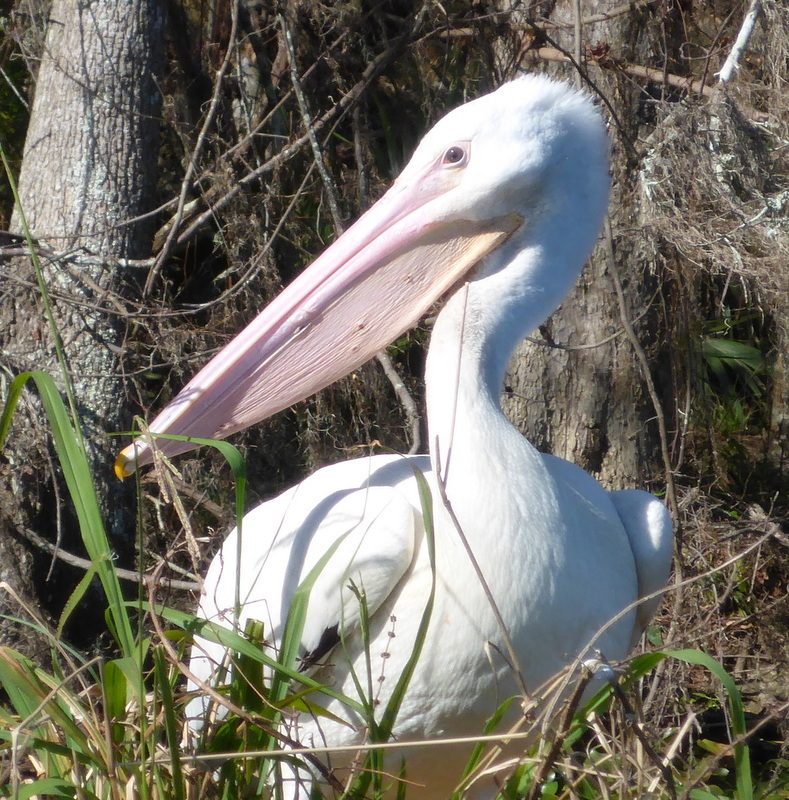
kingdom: Animalia
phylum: Chordata
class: Aves
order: Pelecaniformes
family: Pelecanidae
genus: Pelecanus
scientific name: Pelecanus erythrorhynchos
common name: American white pelican
